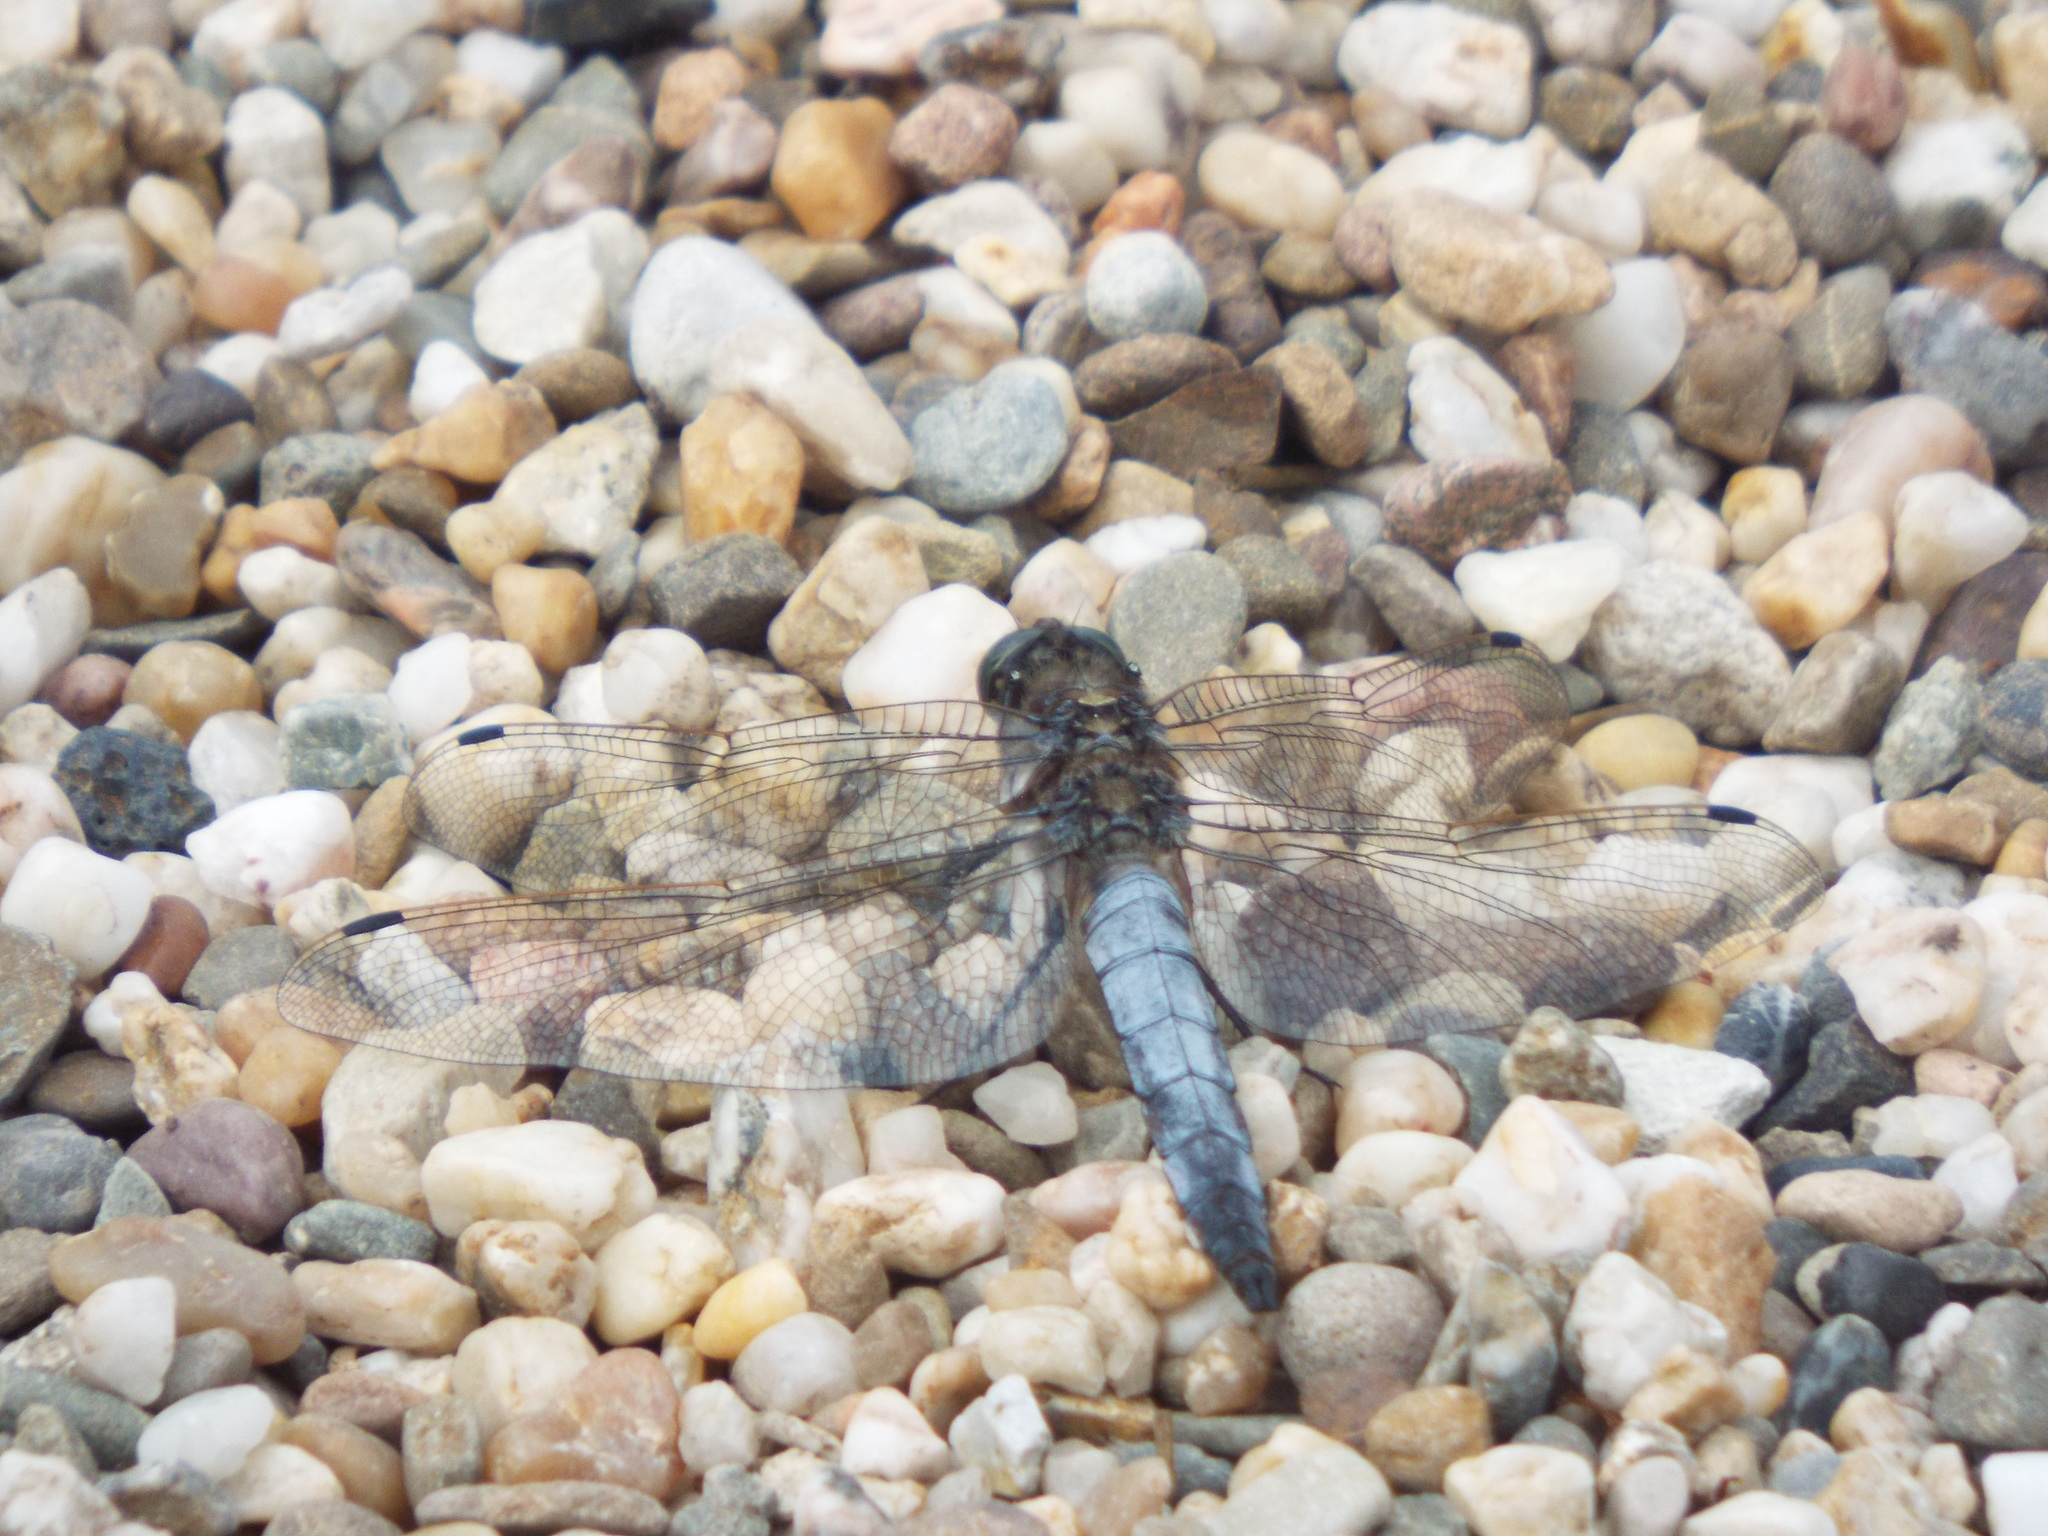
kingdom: Animalia
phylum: Arthropoda
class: Insecta
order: Odonata
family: Libellulidae
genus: Orthetrum
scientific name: Orthetrum cancellatum
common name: Black-tailed skimmer
